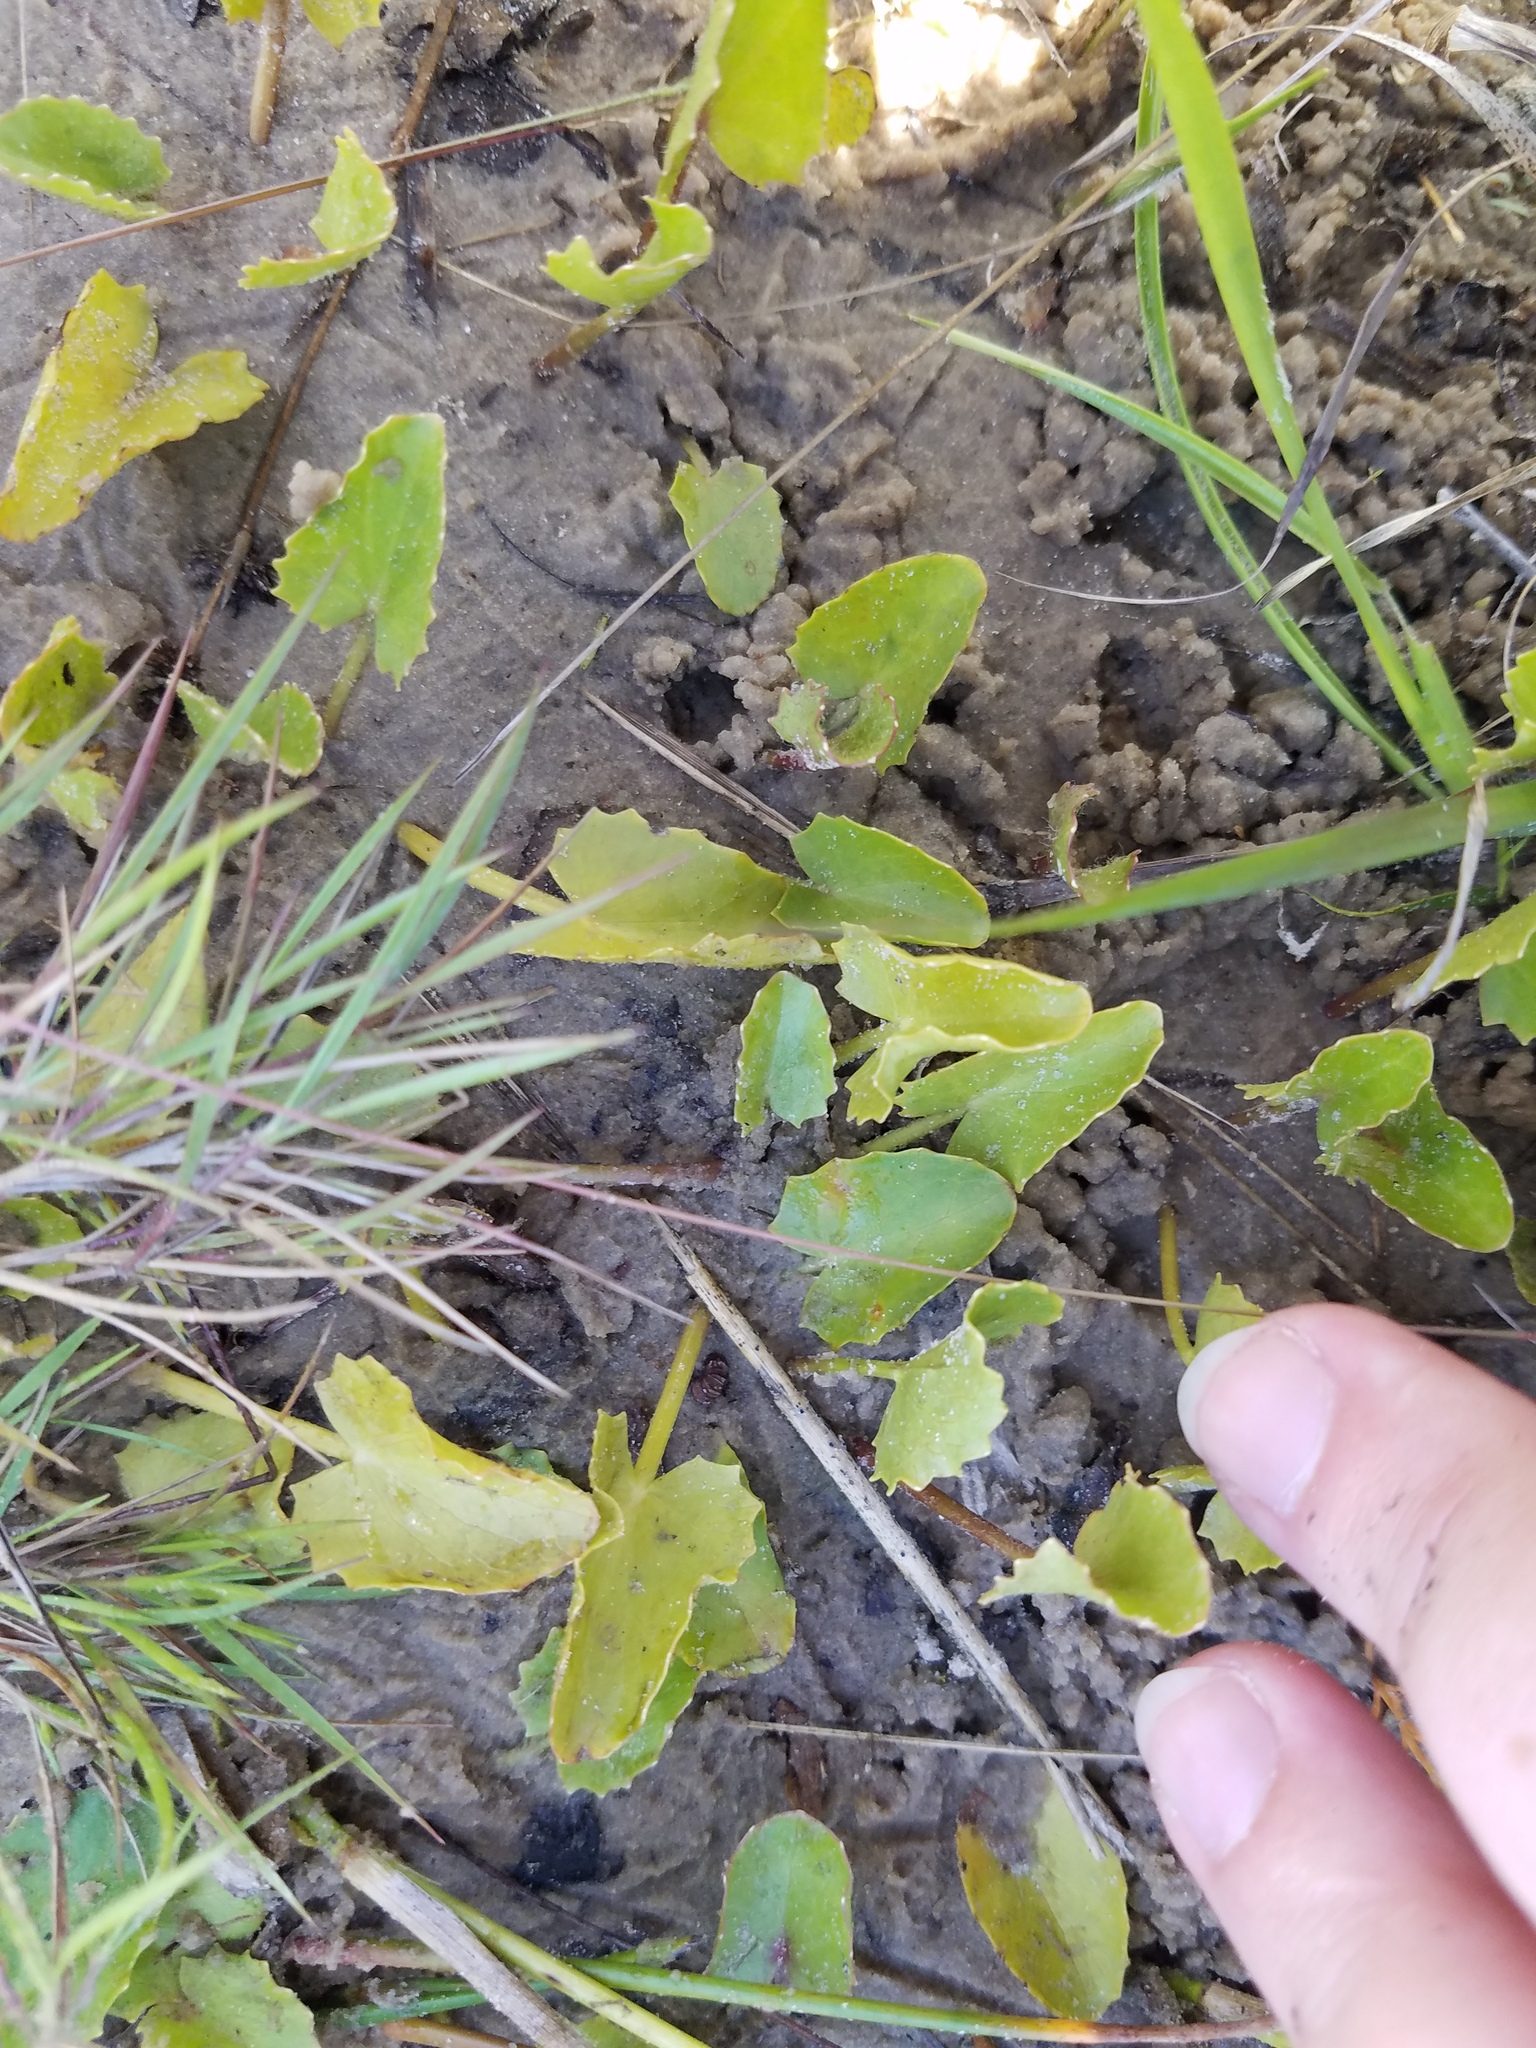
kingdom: Plantae
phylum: Tracheophyta
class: Magnoliopsida
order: Apiales
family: Apiaceae
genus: Centella
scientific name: Centella erecta
